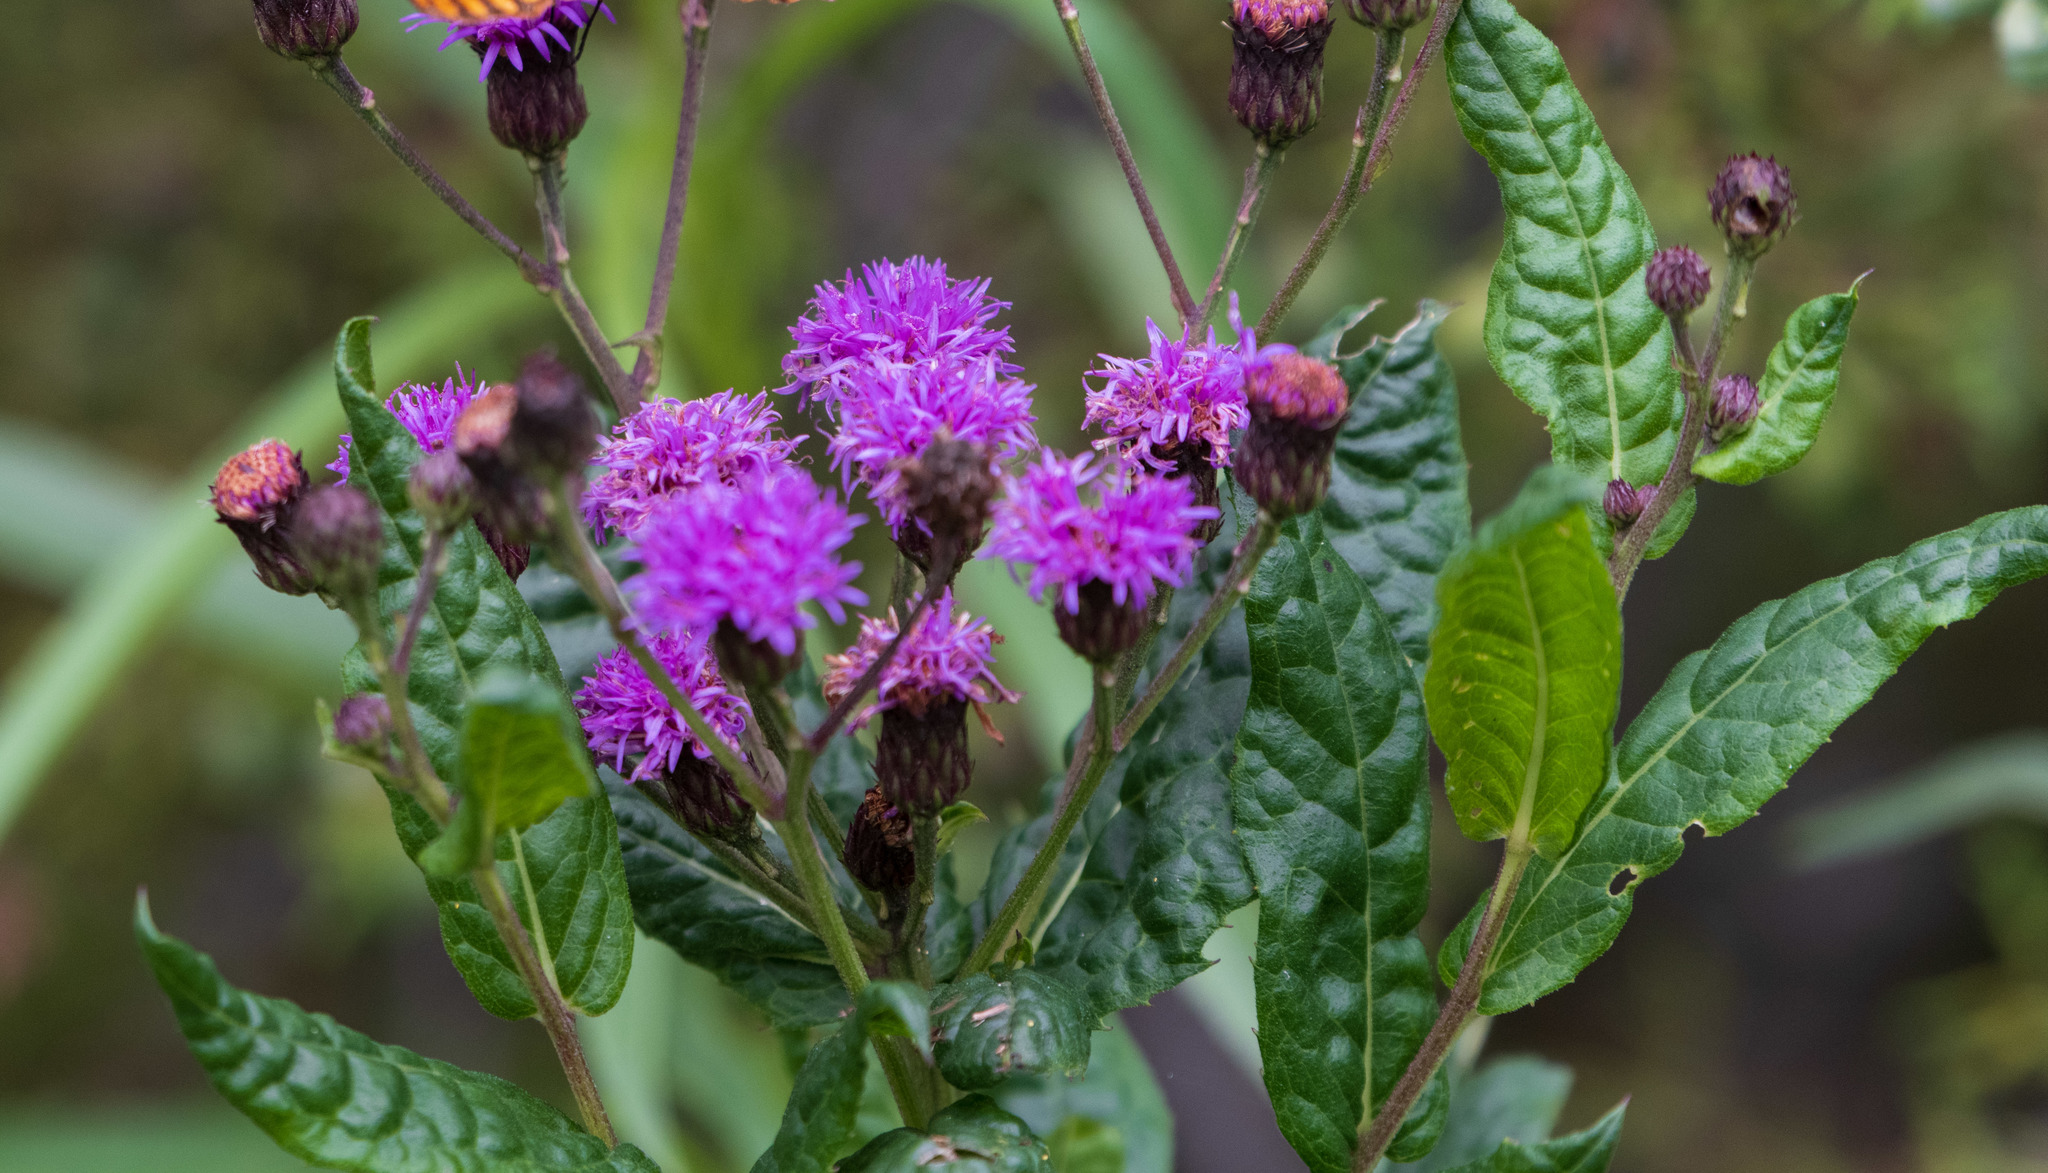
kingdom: Plantae
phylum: Tracheophyta
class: Magnoliopsida
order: Asterales
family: Asteraceae
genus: Vernonia
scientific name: Vernonia greggii
